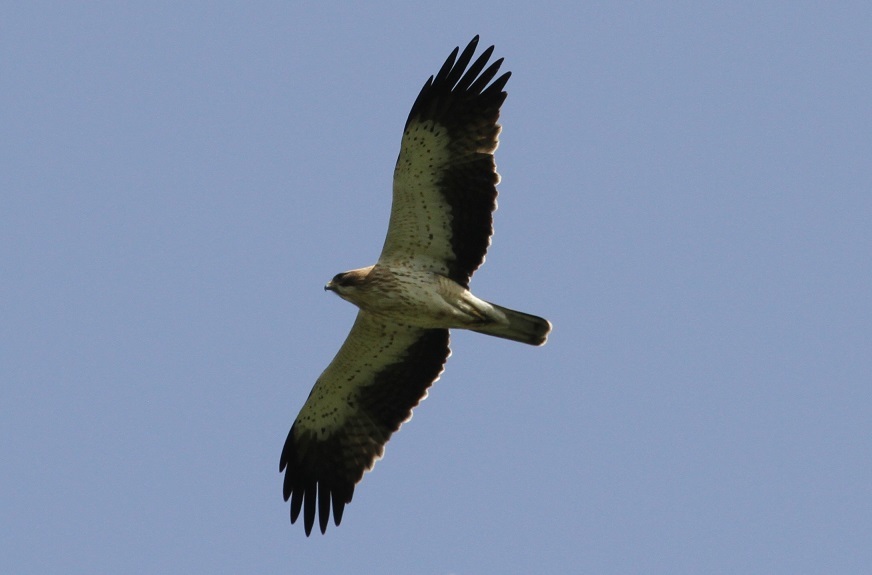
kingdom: Animalia
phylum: Chordata
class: Aves
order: Accipitriformes
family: Accipitridae
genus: Hieraaetus
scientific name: Hieraaetus pennatus
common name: Booted eagle
